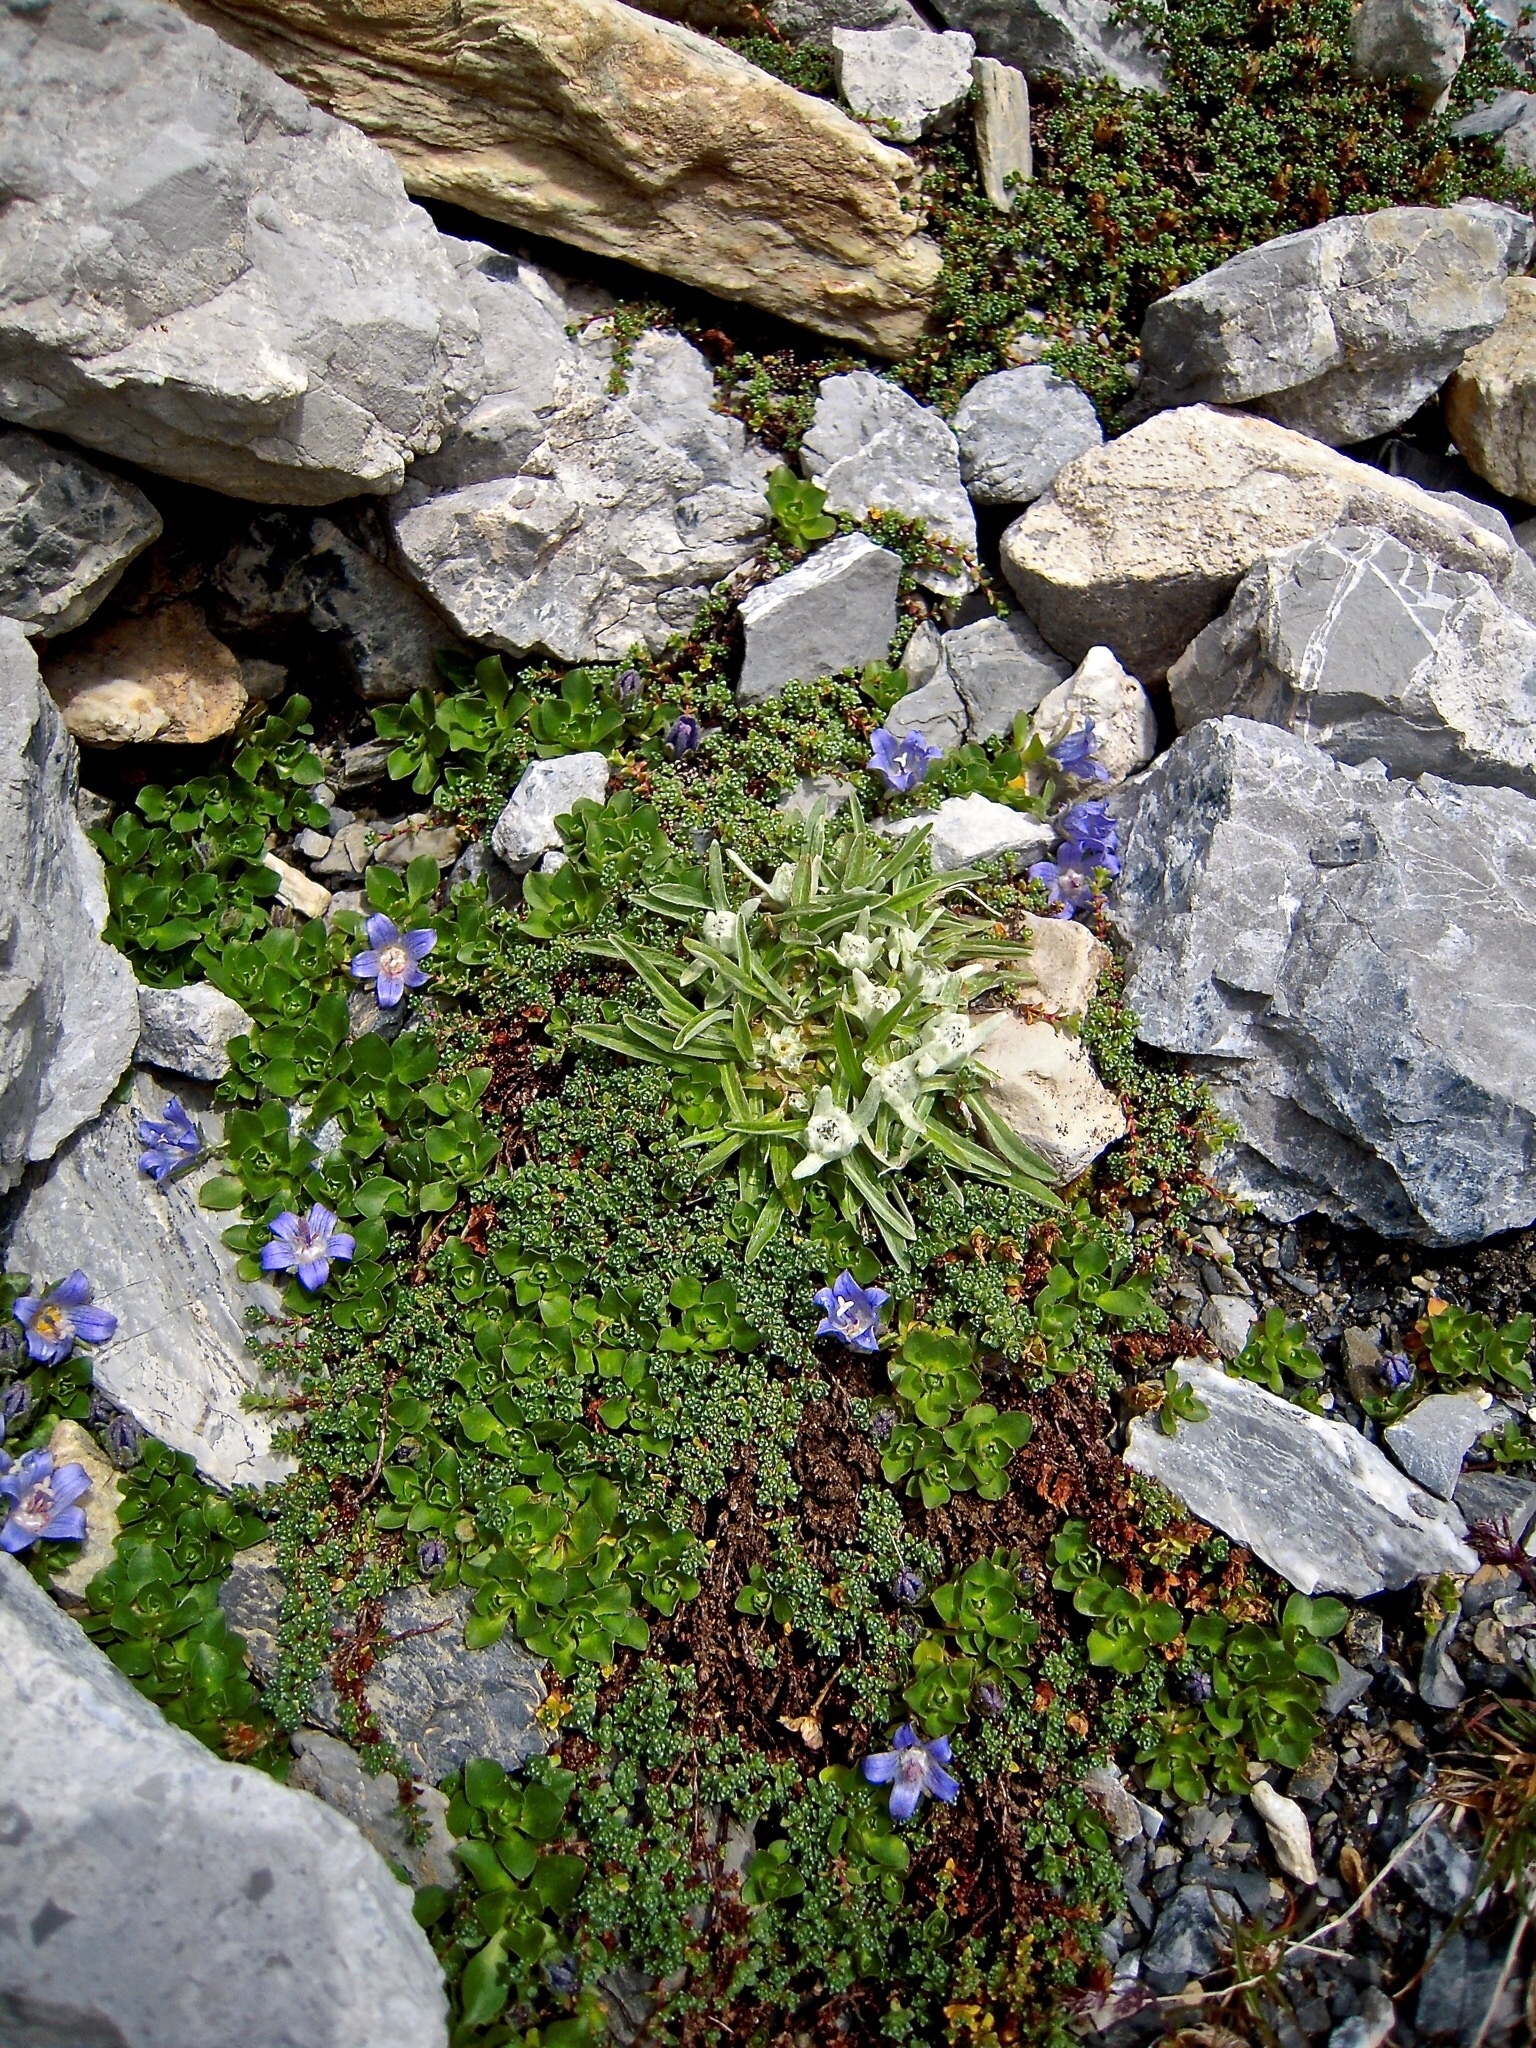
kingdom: Plantae
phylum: Tracheophyta
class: Magnoliopsida
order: Asterales
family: Asteraceae
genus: Leontopodium
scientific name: Leontopodium nivale
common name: Edelweiss
